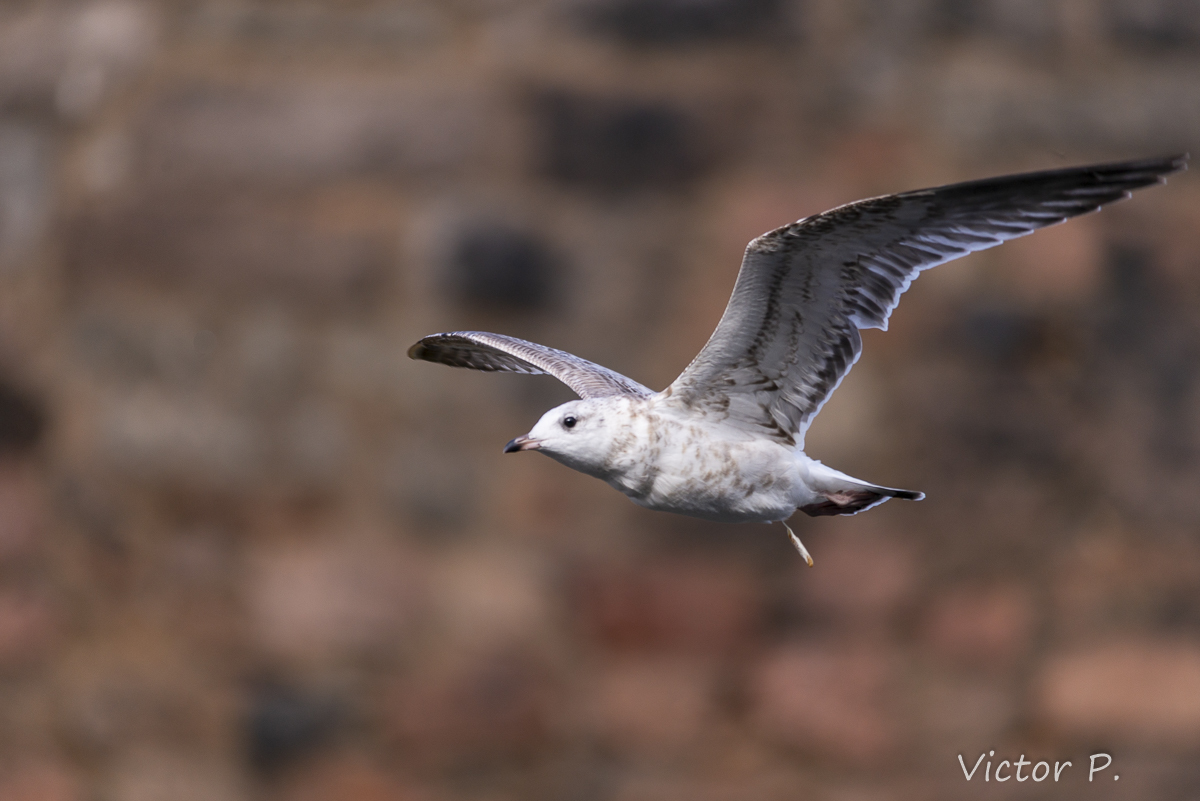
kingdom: Animalia
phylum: Chordata
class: Aves
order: Charadriiformes
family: Laridae
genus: Larus
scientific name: Larus canus
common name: Mew gull
